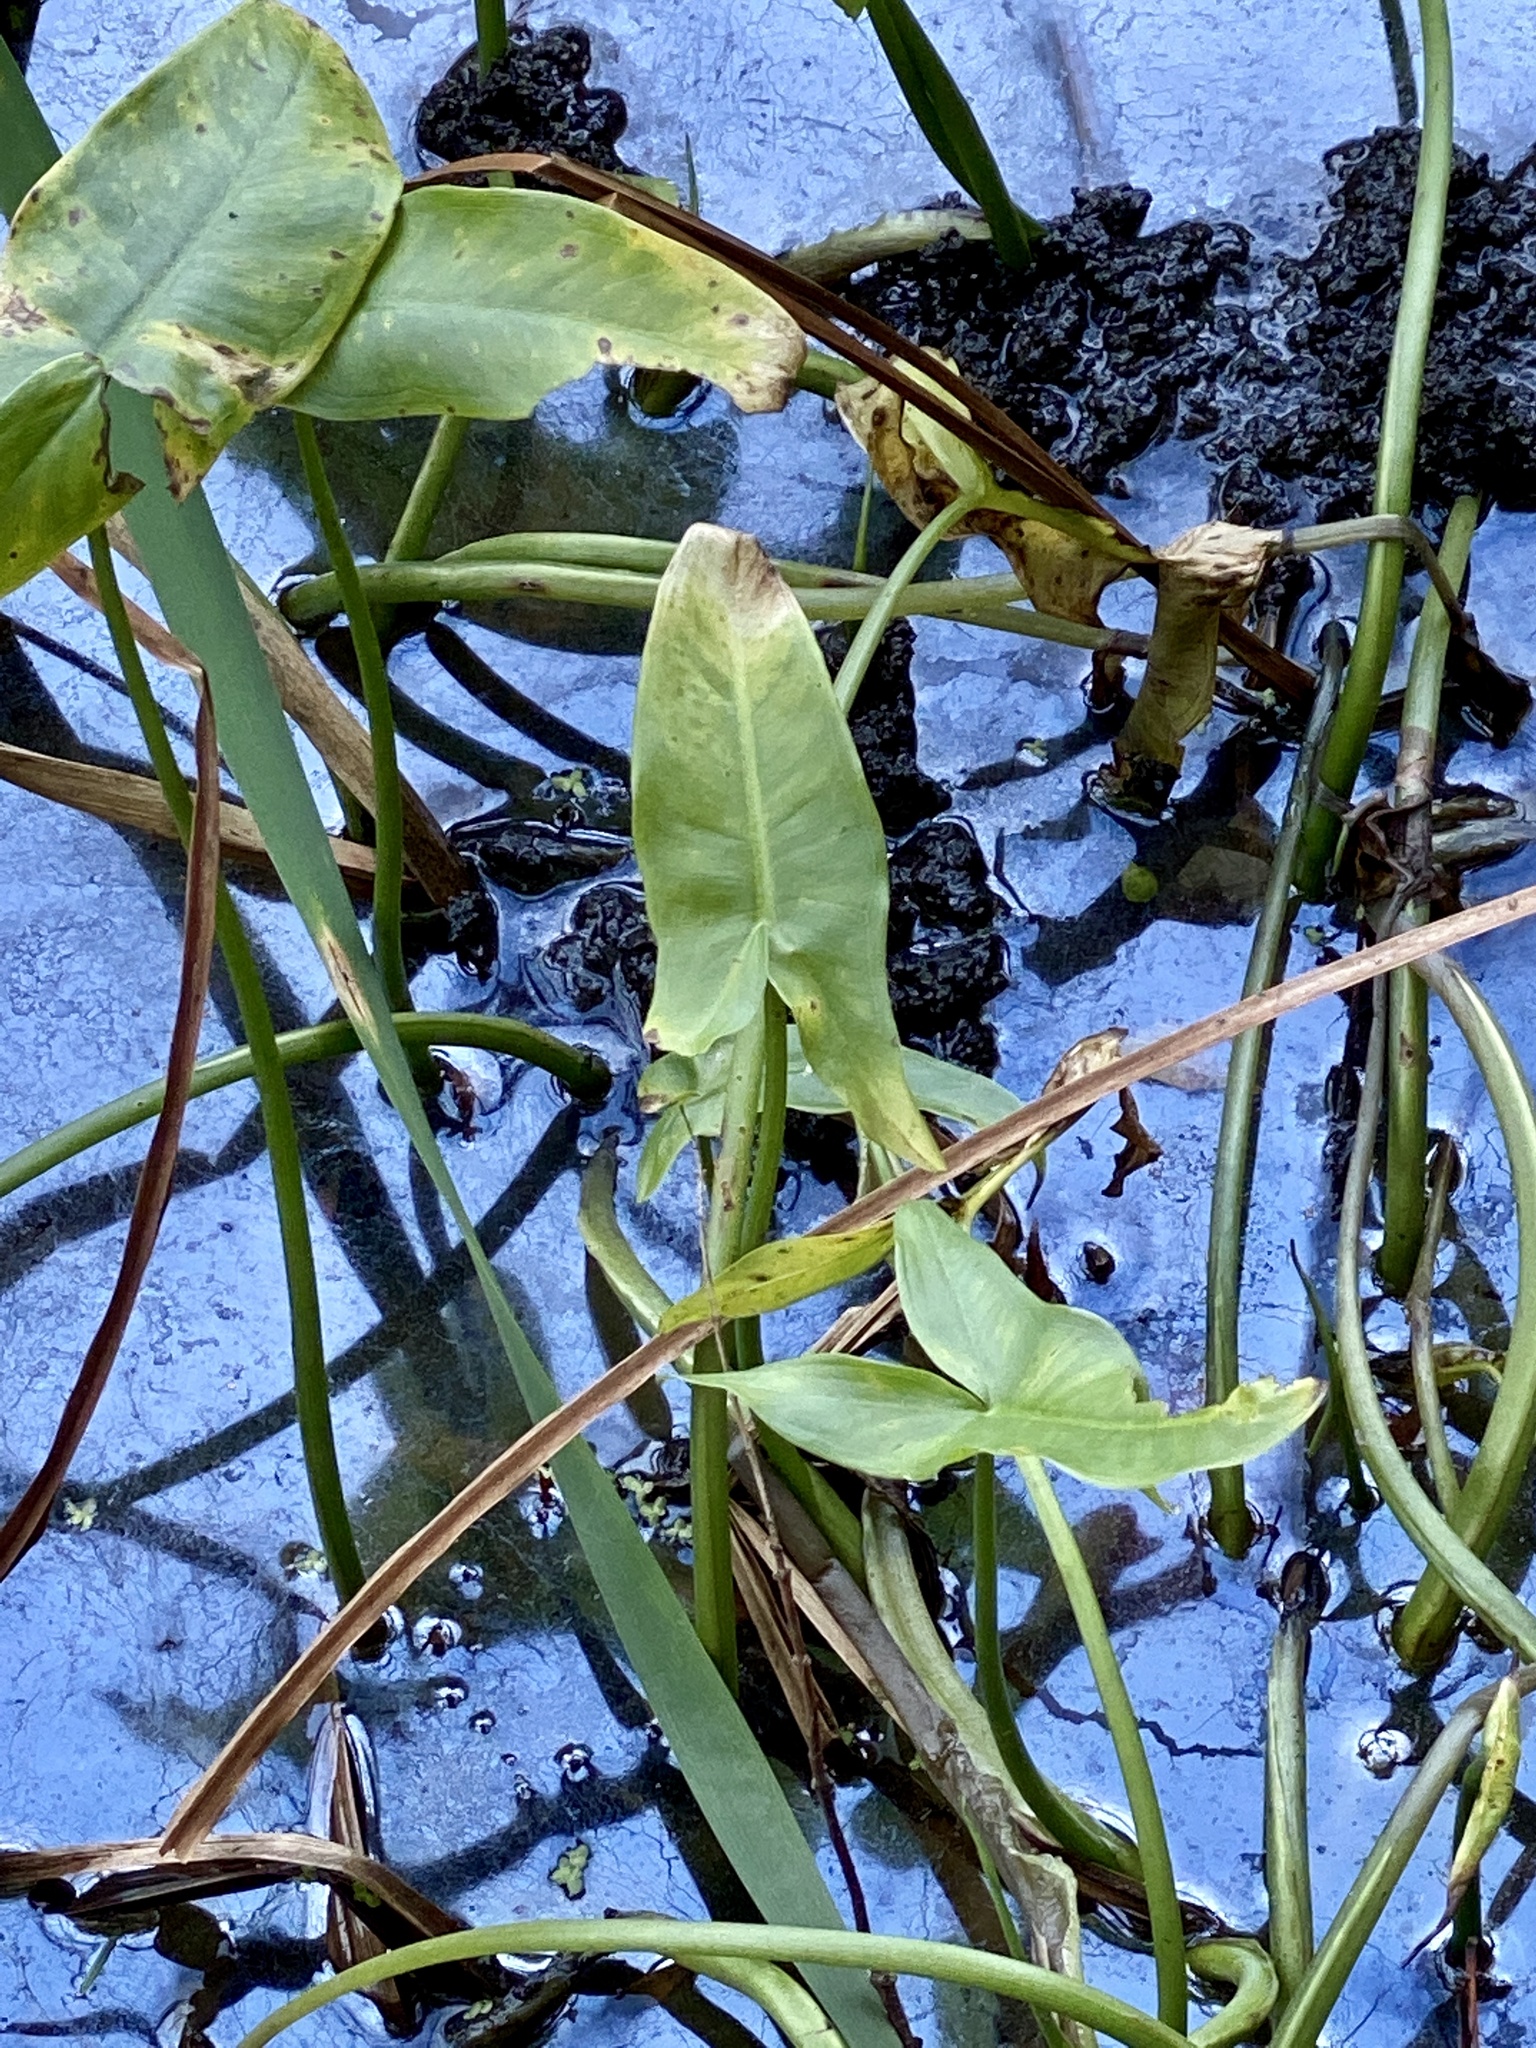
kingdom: Plantae
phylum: Tracheophyta
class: Liliopsida
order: Alismatales
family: Araceae
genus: Peltandra
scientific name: Peltandra virginica
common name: Arrow arum
